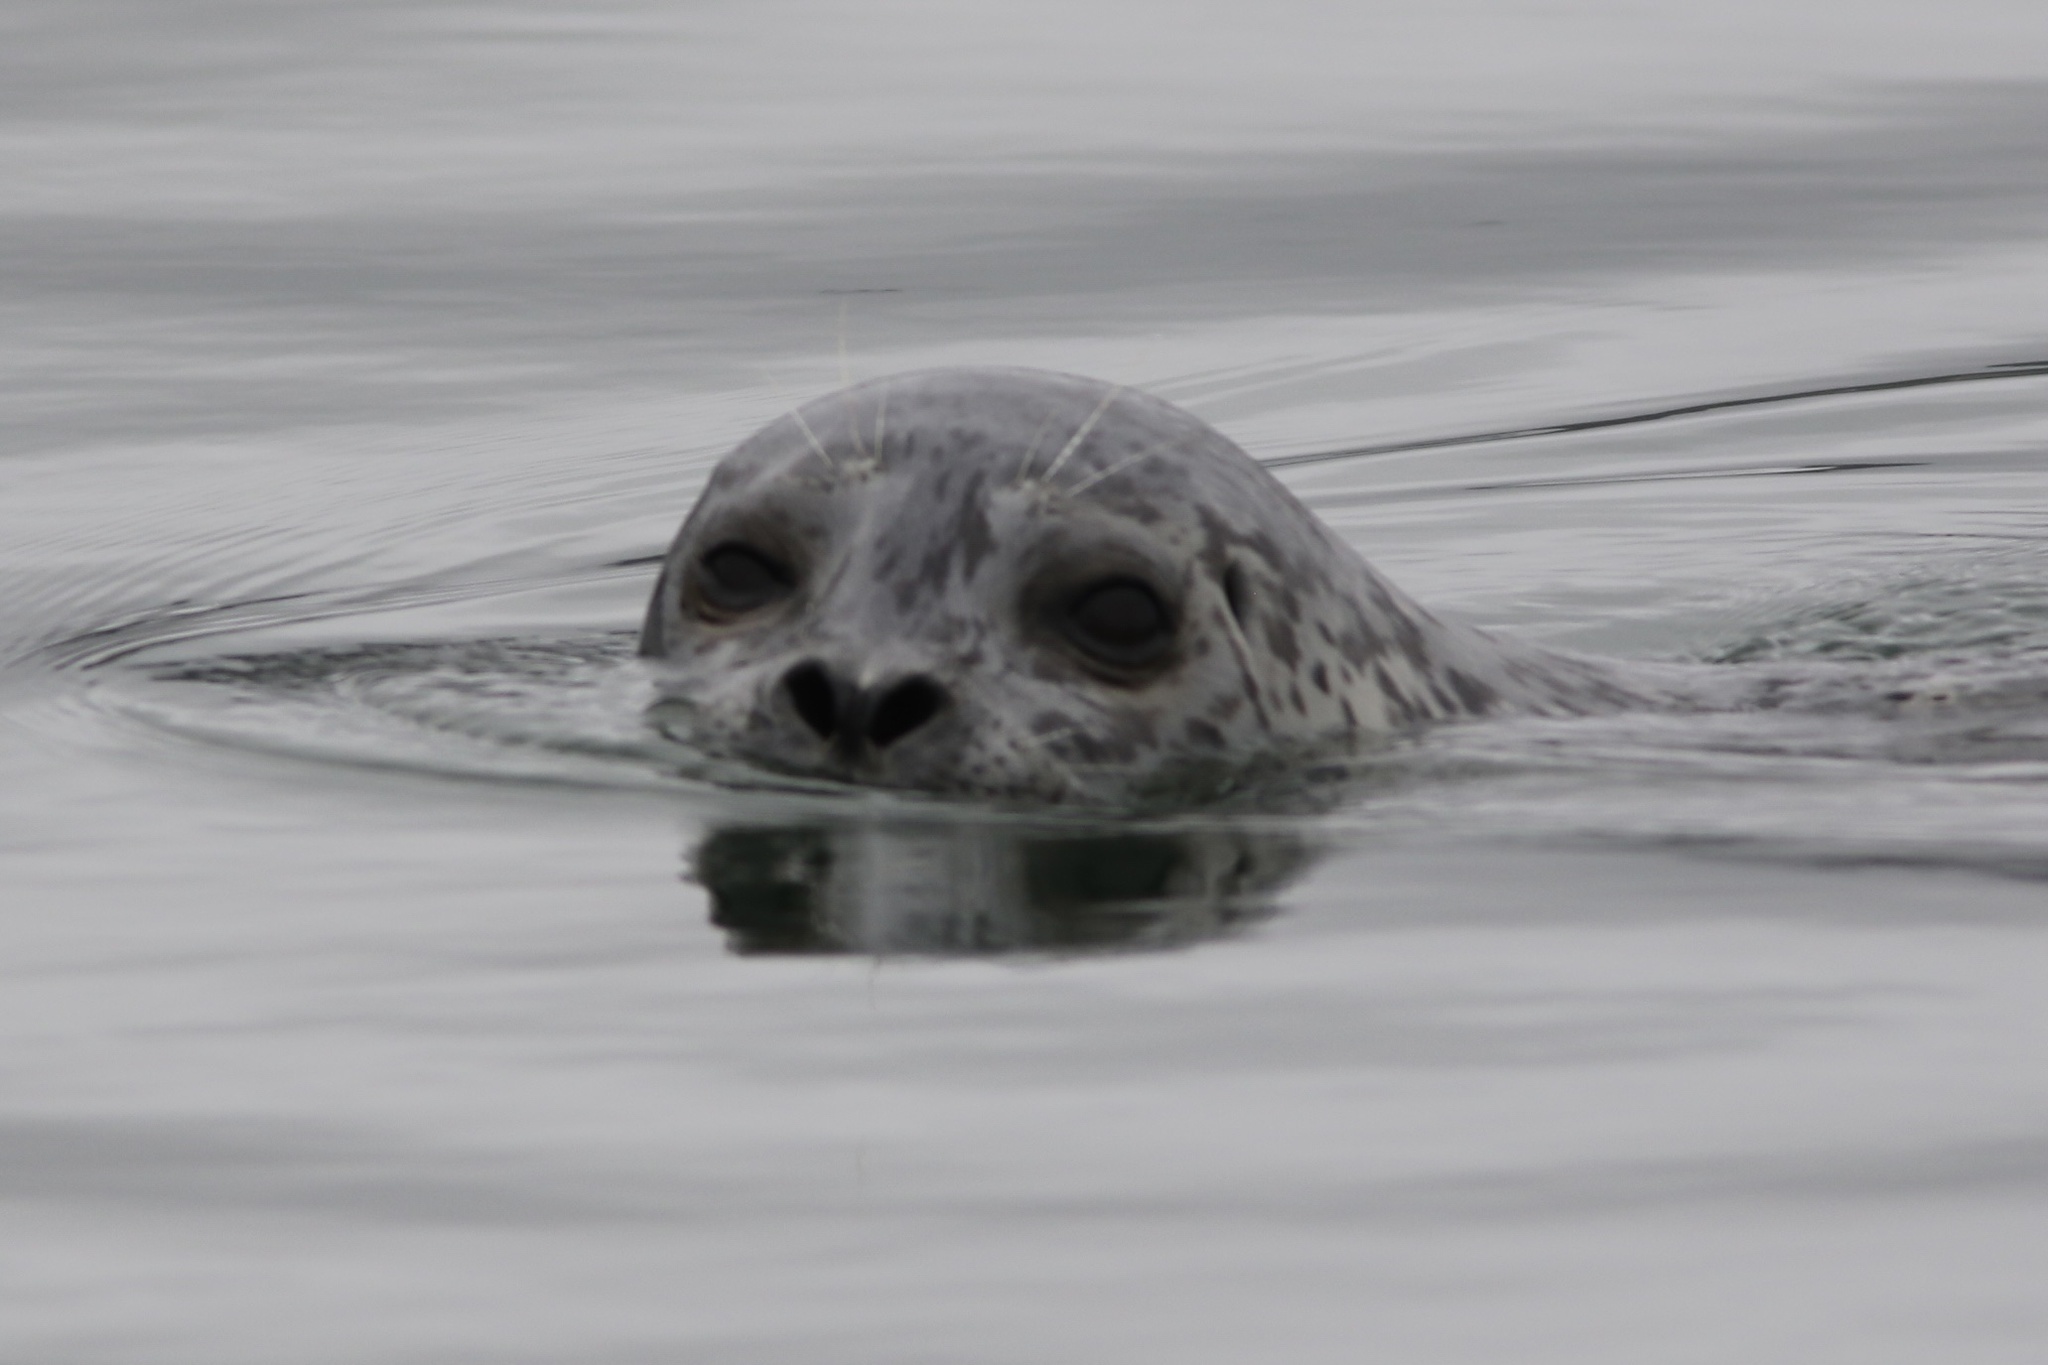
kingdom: Animalia
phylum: Chordata
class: Mammalia
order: Carnivora
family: Phocidae
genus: Phoca
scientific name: Phoca vitulina
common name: Harbor seal
